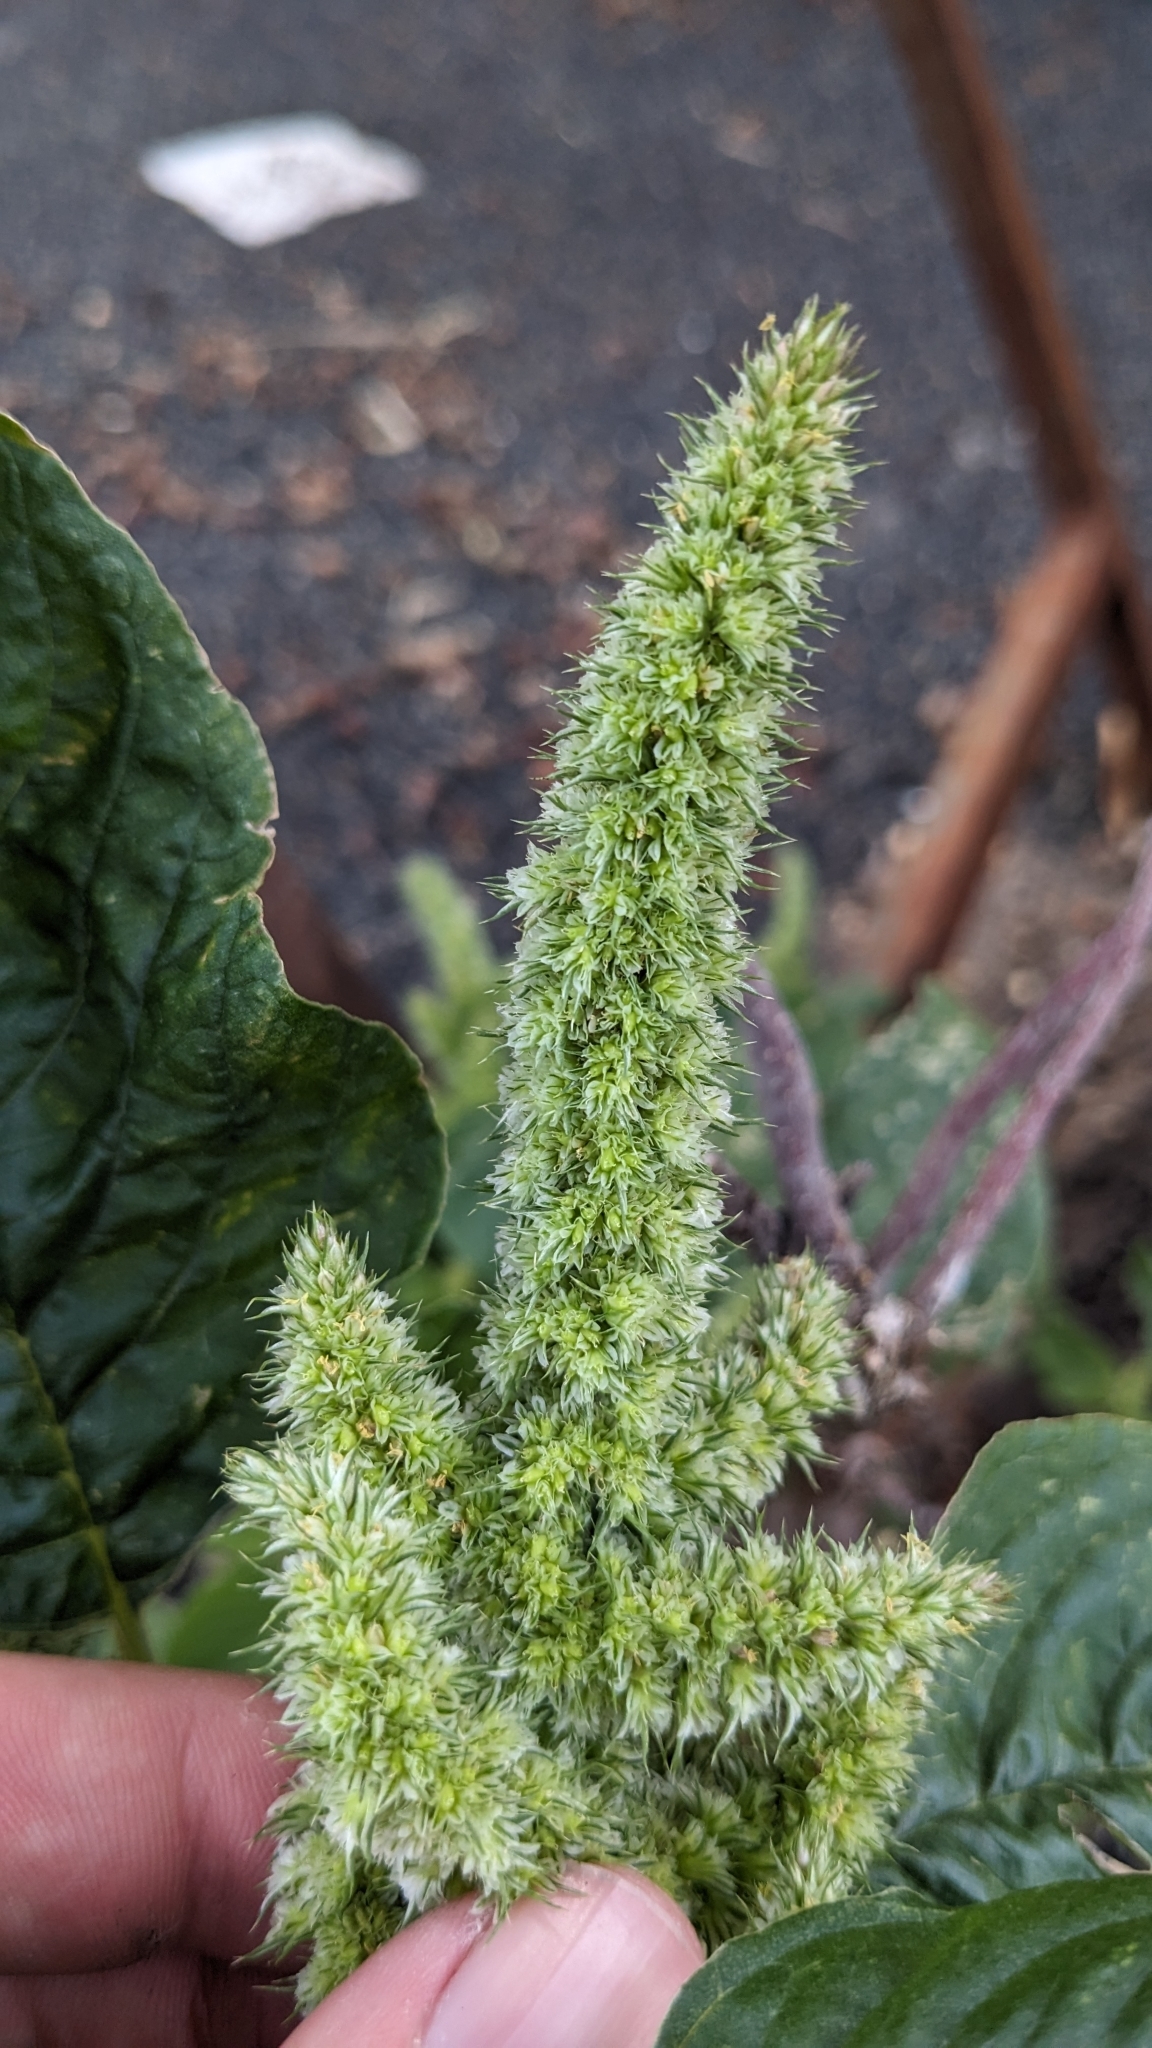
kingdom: Plantae
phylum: Tracheophyta
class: Magnoliopsida
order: Caryophyllales
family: Amaranthaceae
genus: Amaranthus
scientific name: Amaranthus retroflexus
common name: Redroot amaranth
